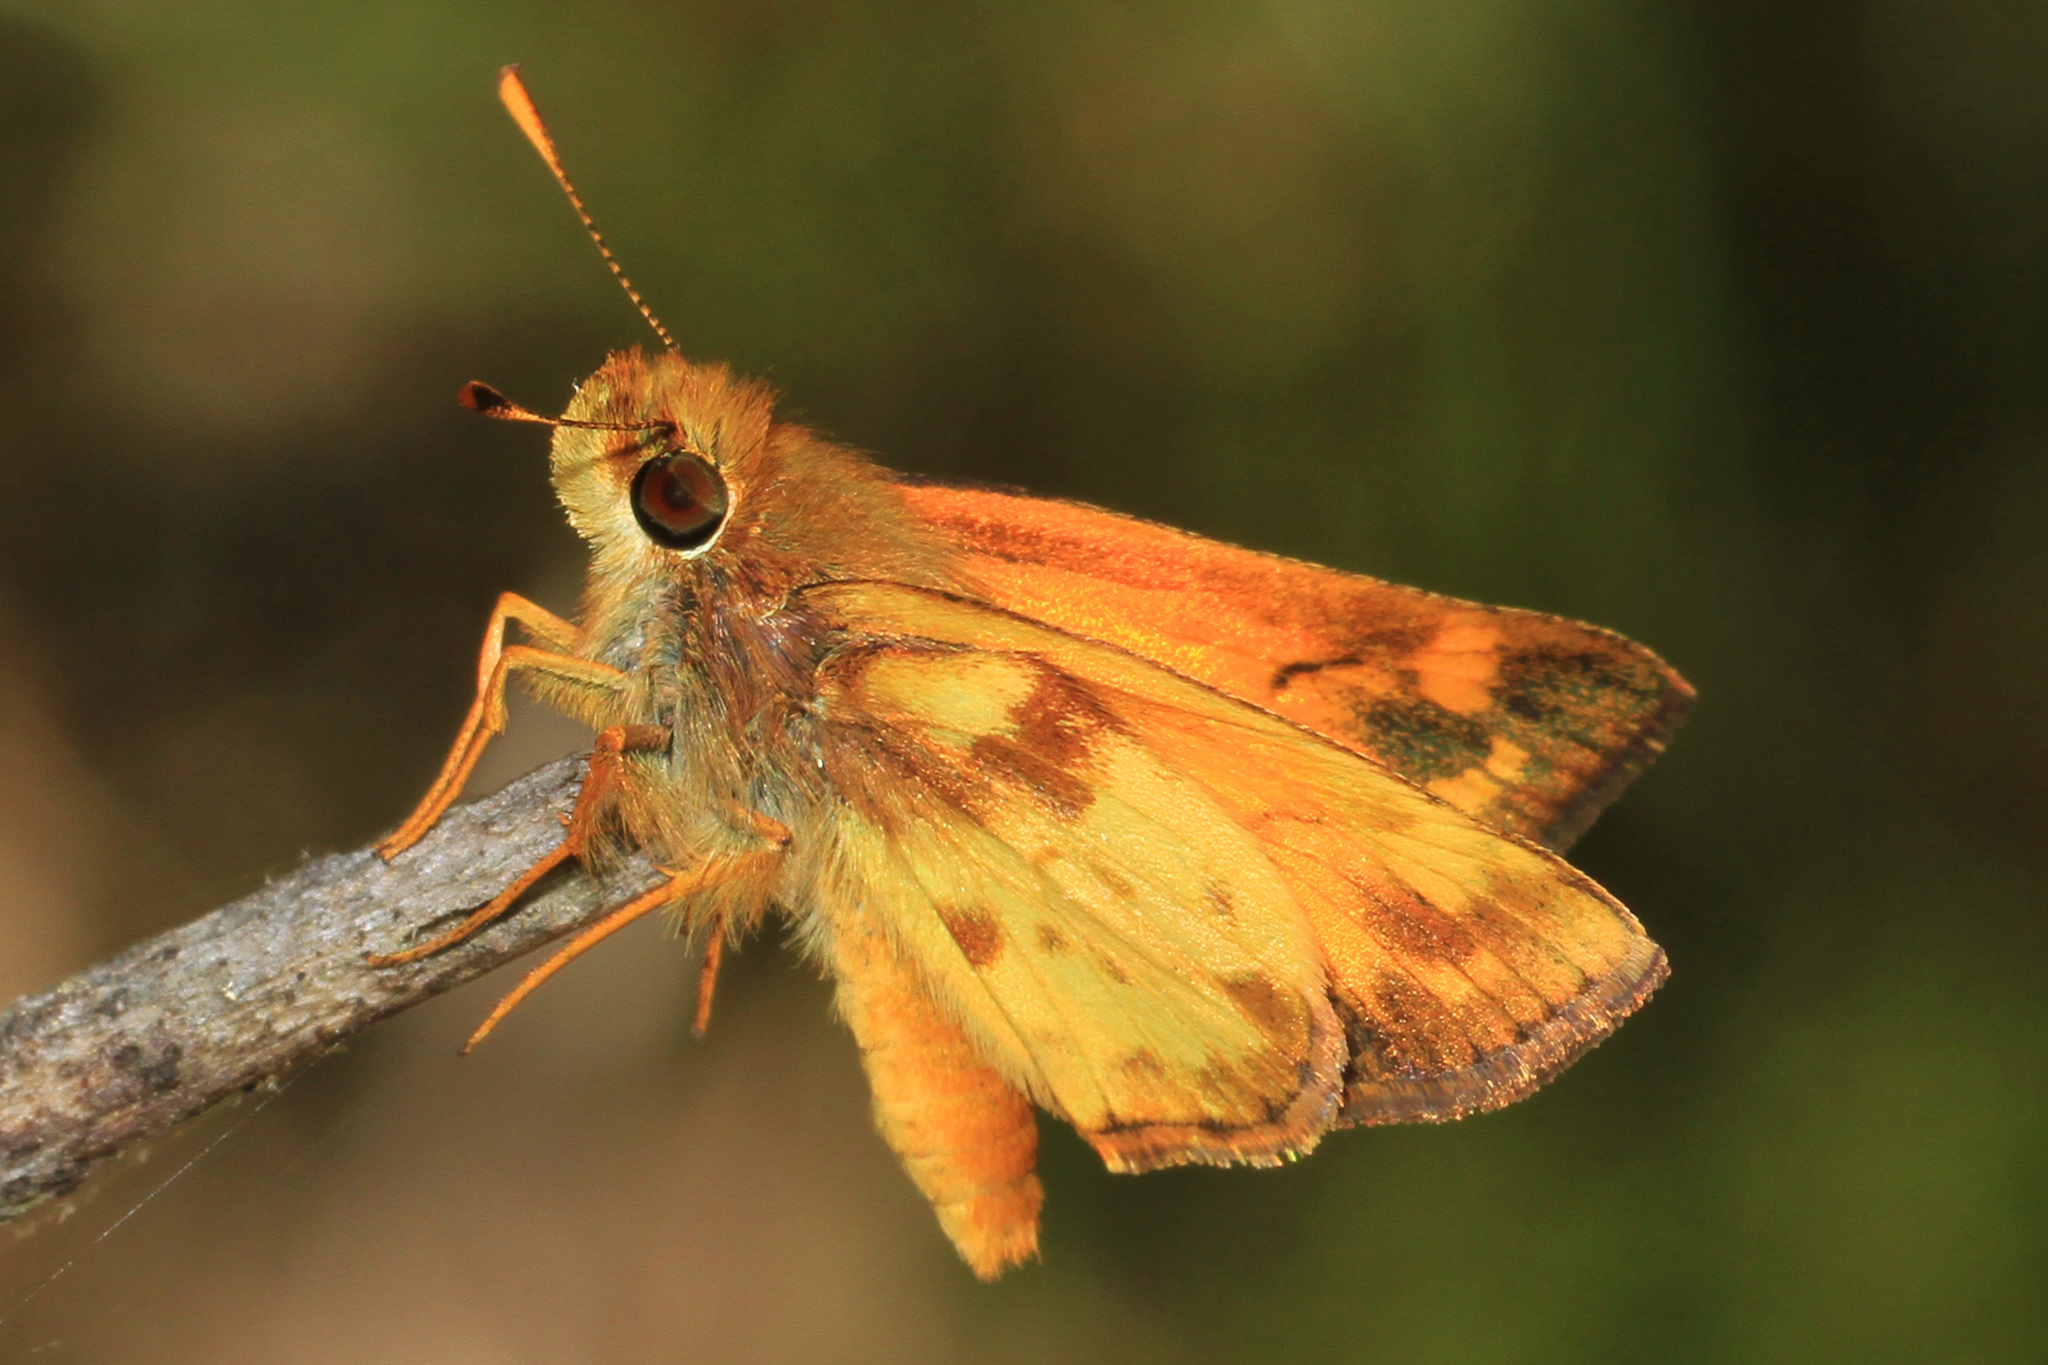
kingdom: Animalia
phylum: Arthropoda
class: Insecta
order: Lepidoptera
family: Hesperiidae
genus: Lon
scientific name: Lon zabulon
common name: Zabulon skipper
